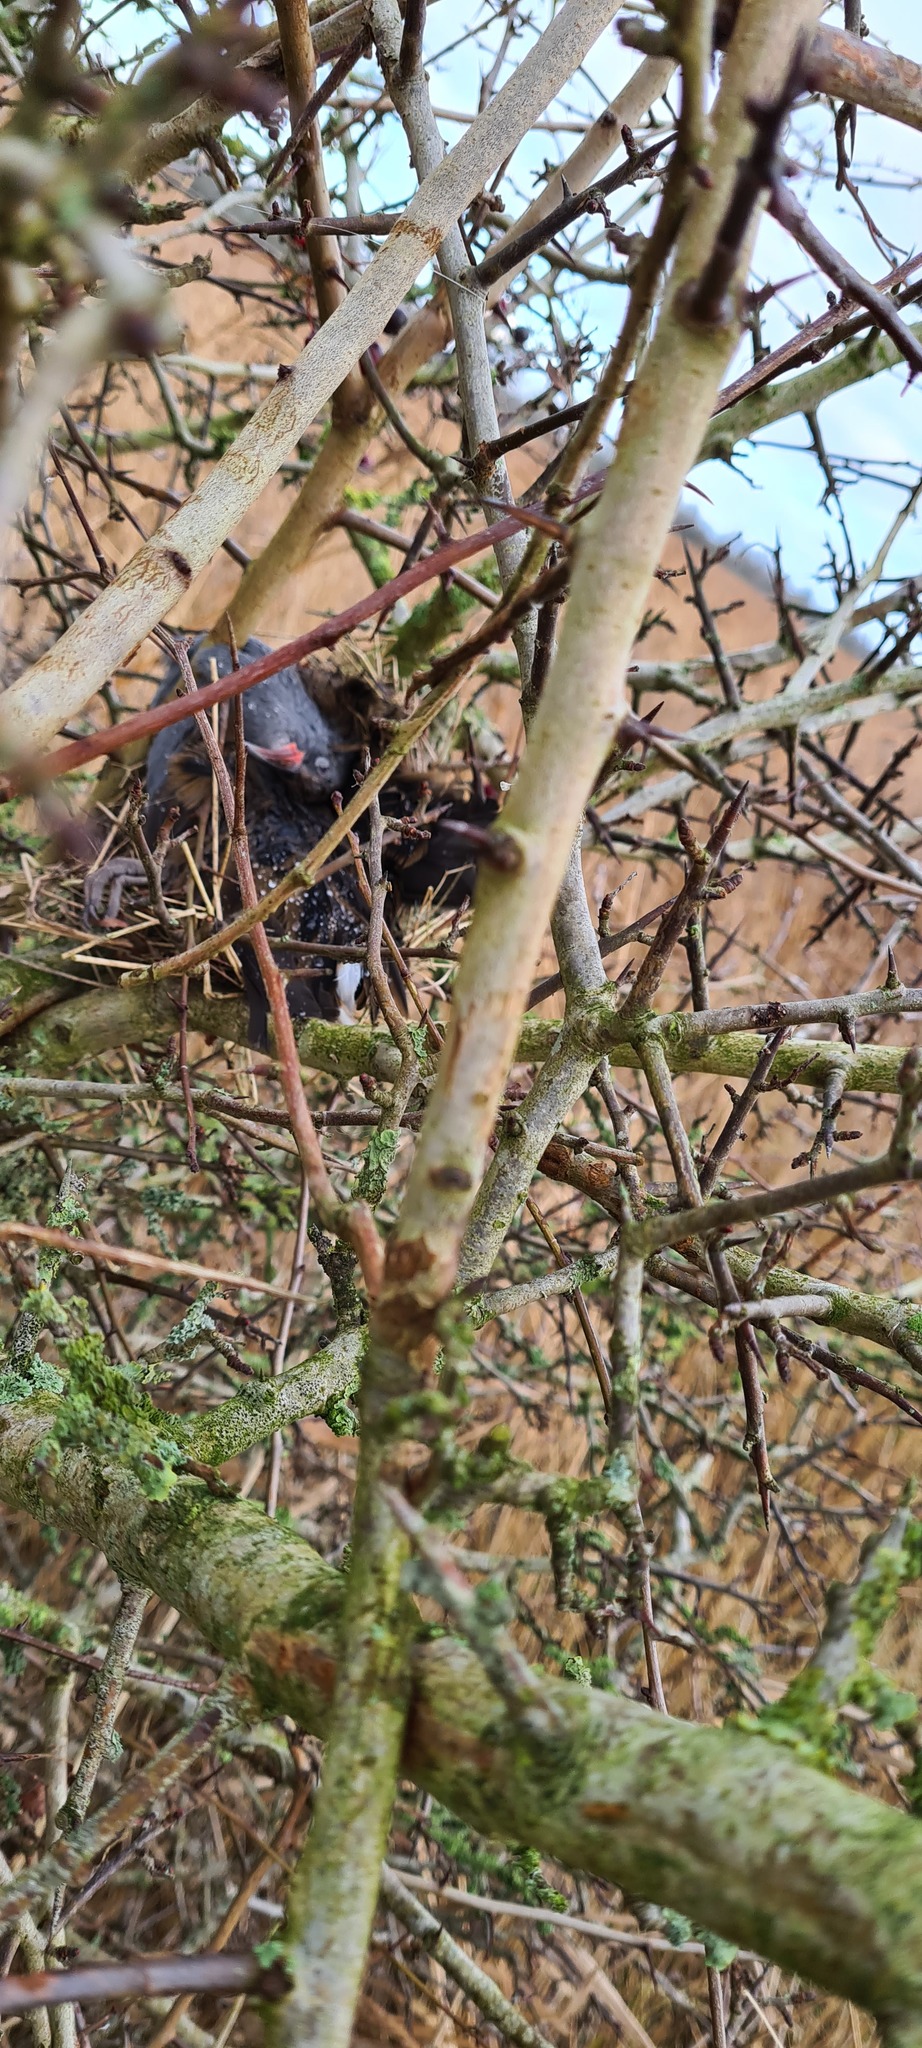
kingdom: Animalia
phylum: Chordata
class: Aves
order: Gruiformes
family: Rallidae
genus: Rallus
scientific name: Rallus aquaticus
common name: Water rail
